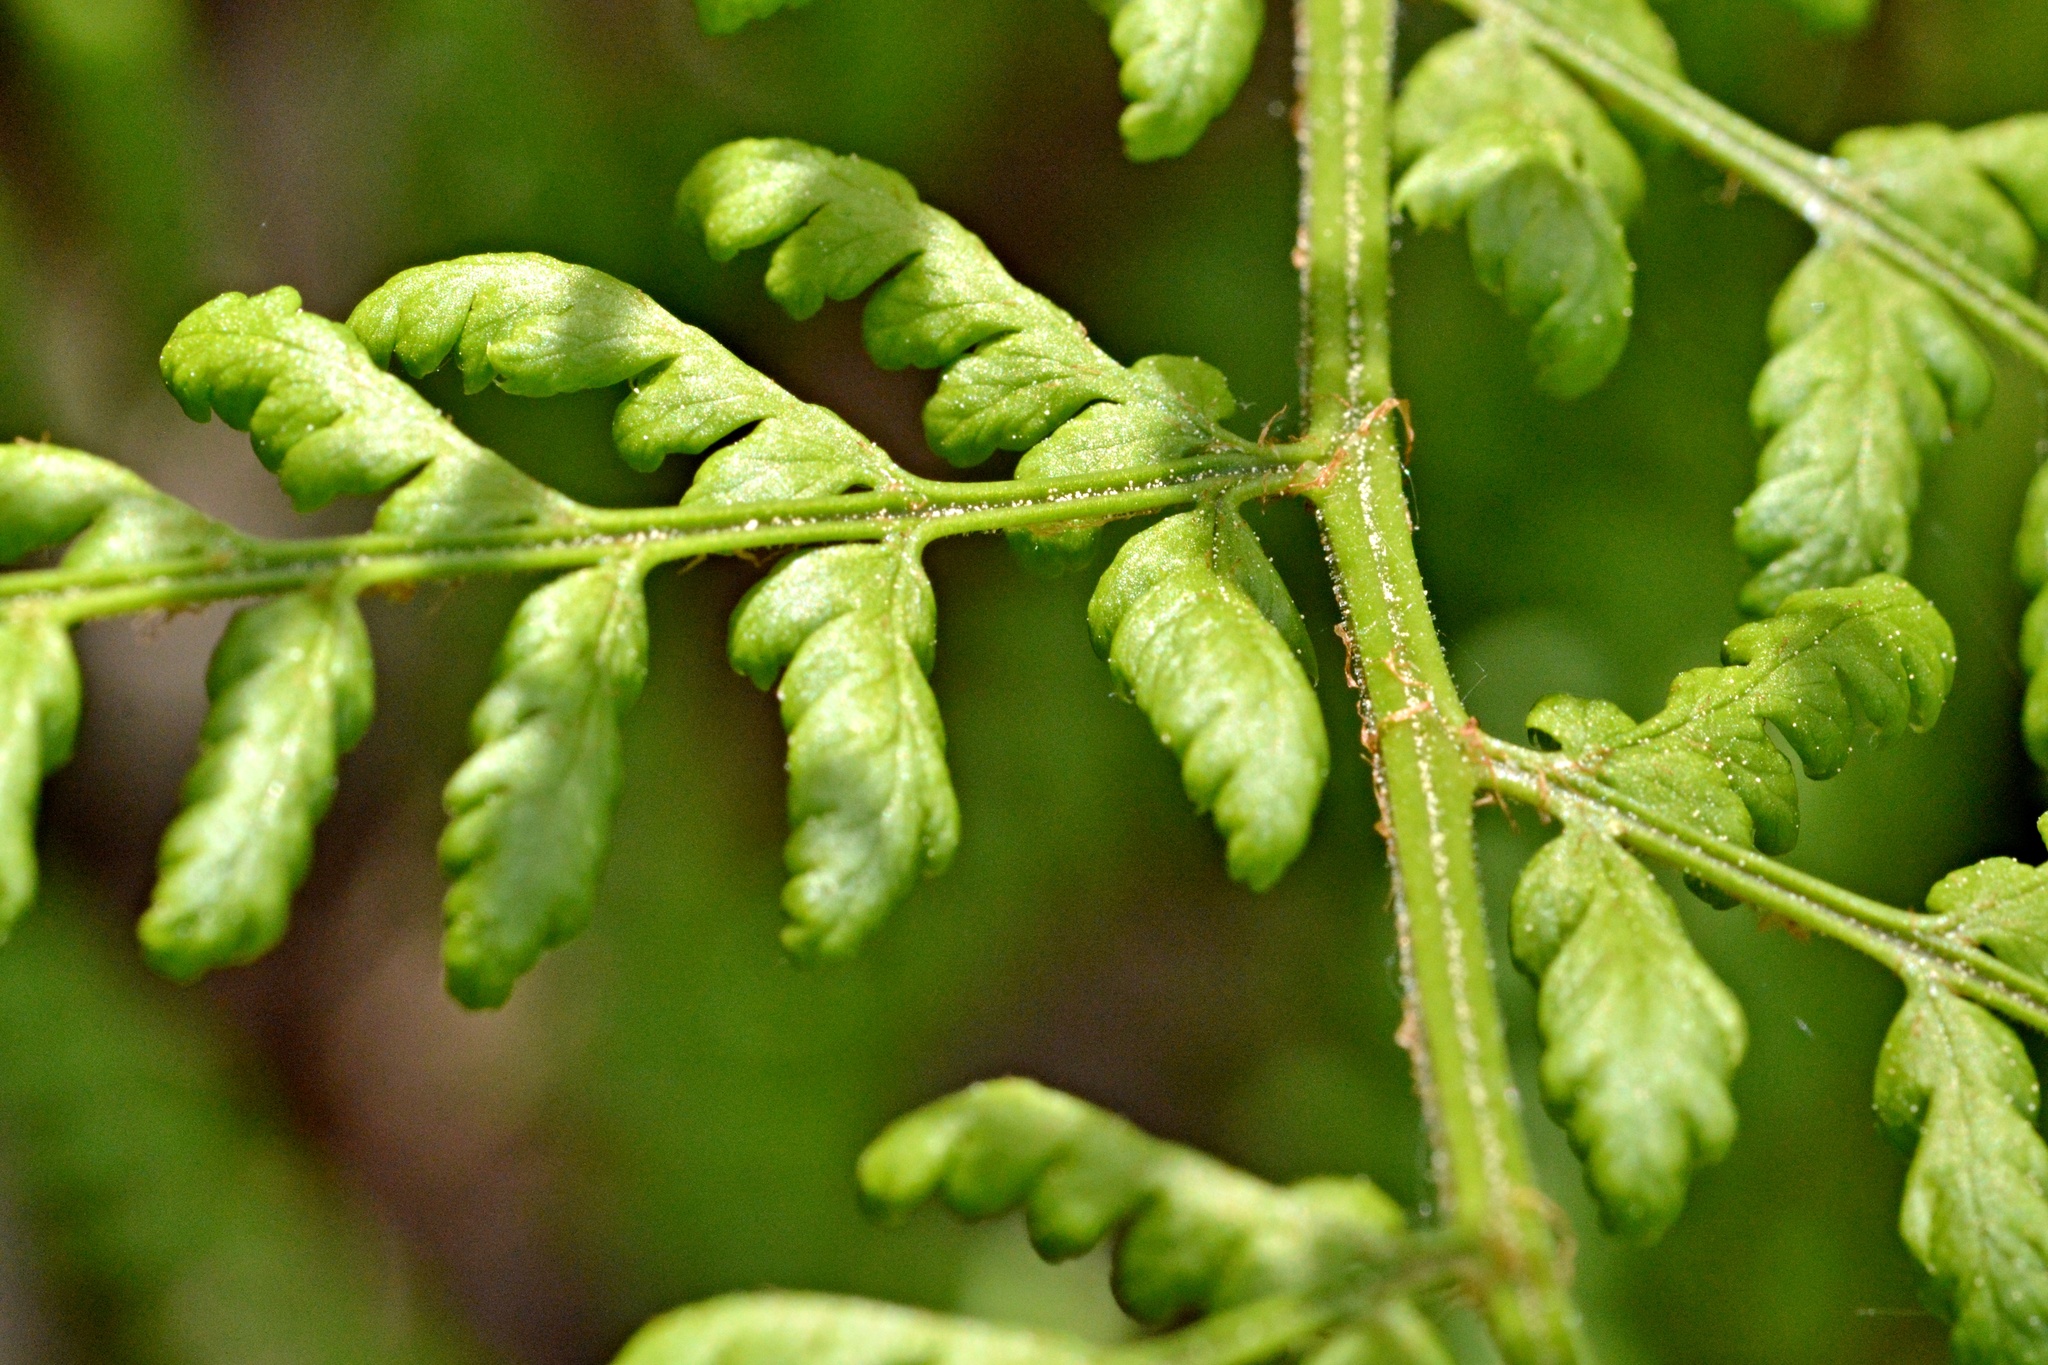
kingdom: Plantae
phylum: Tracheophyta
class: Polypodiopsida
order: Polypodiales
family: Dryopteridaceae
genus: Dryopteris
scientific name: Dryopteris dilatata
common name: Broad buckler-fern
